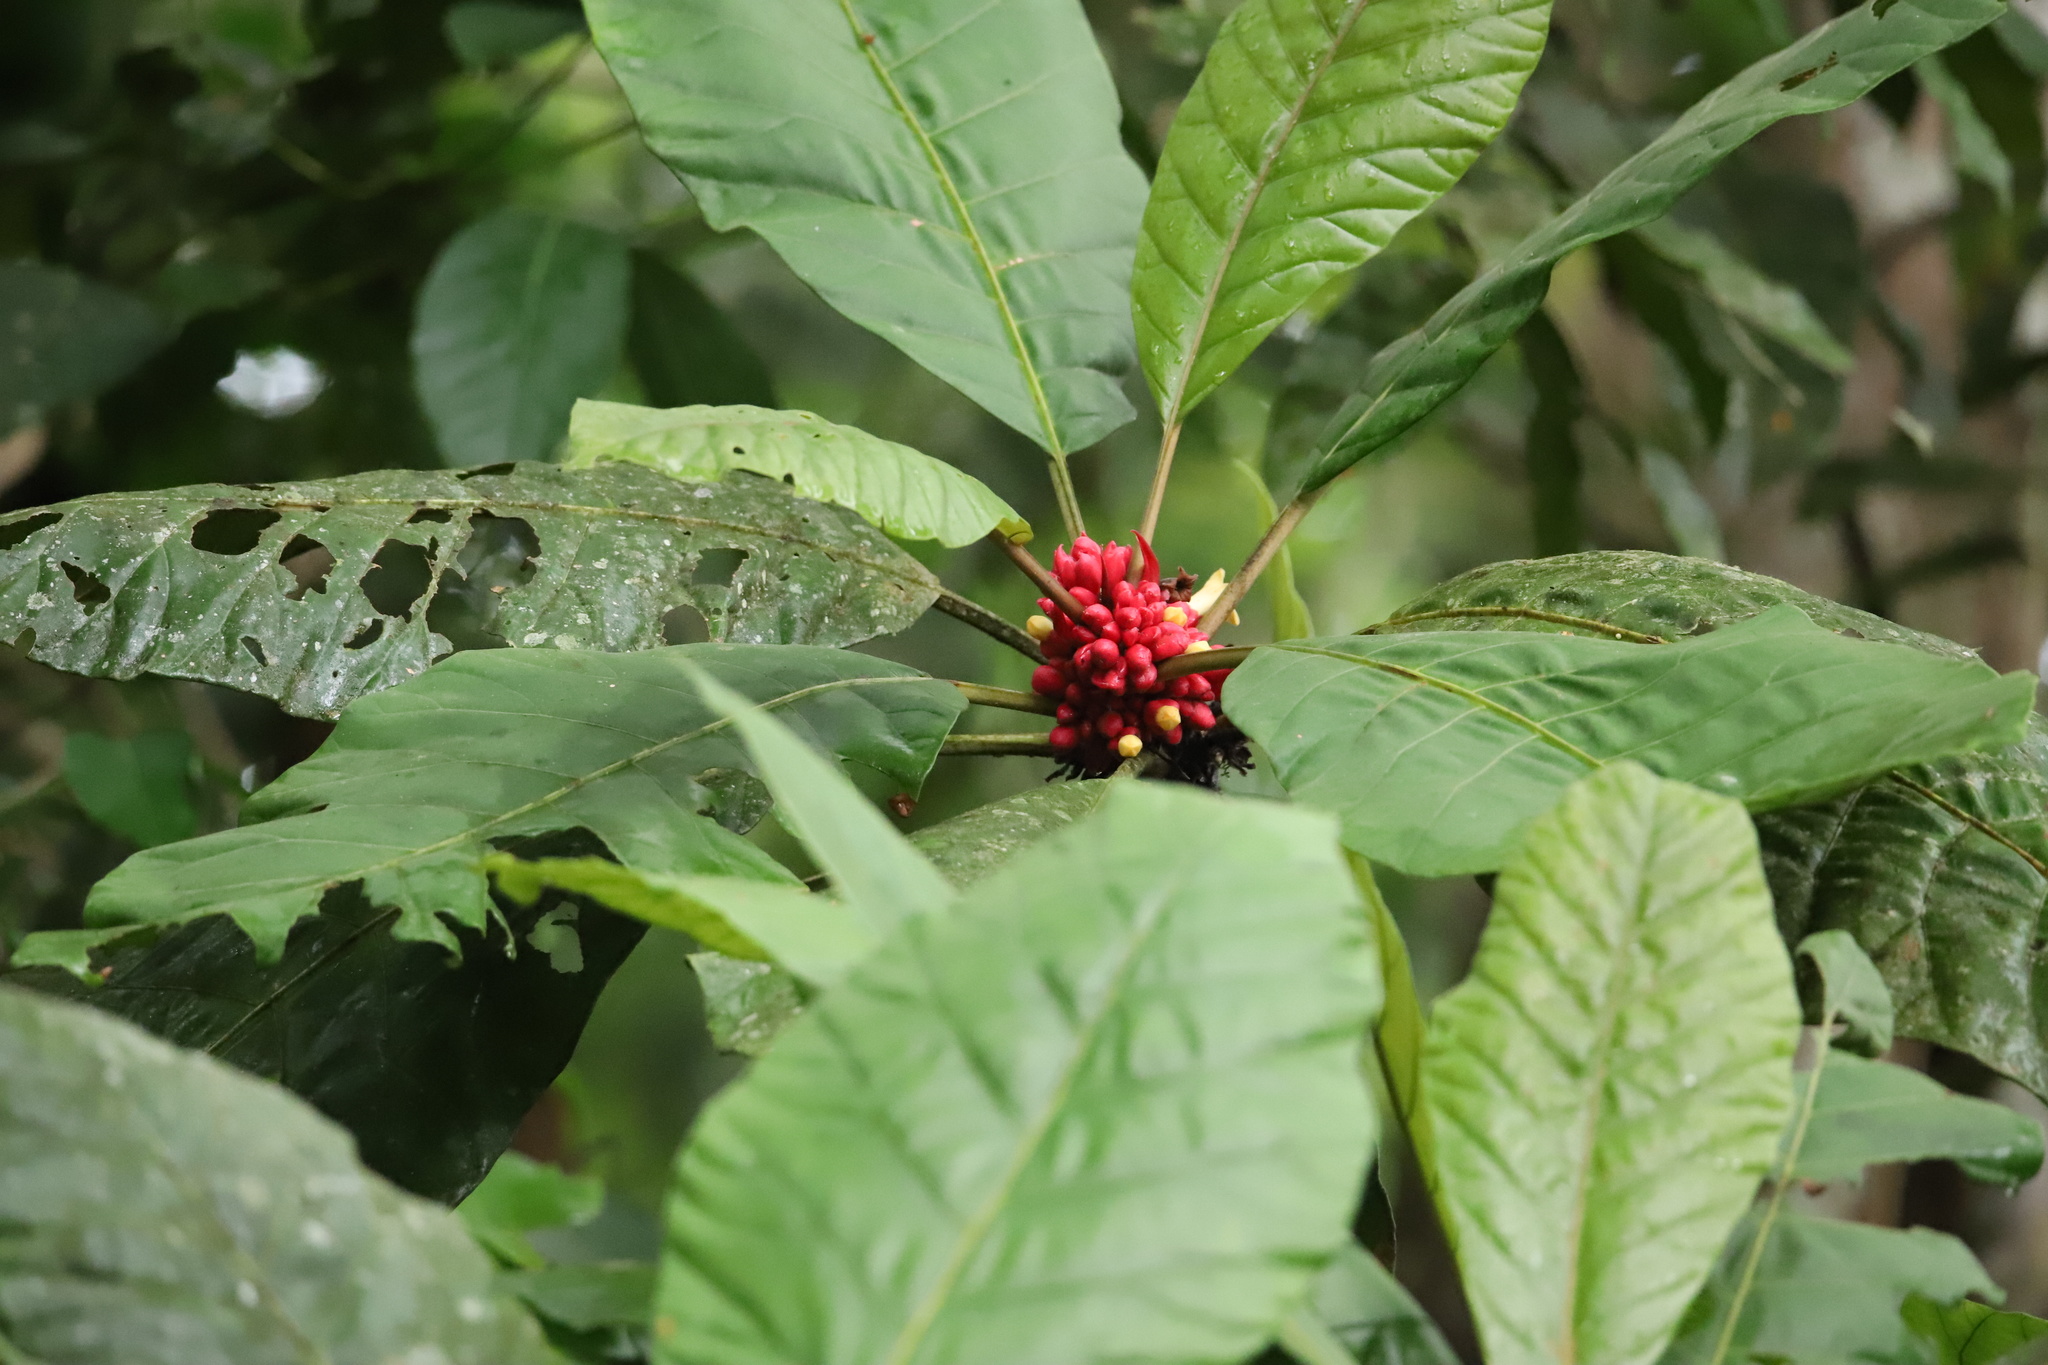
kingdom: Plantae
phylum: Tracheophyta
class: Magnoliopsida
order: Gentianales
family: Rubiaceae
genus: Pentagonia
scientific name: Pentagonia macrophylla
